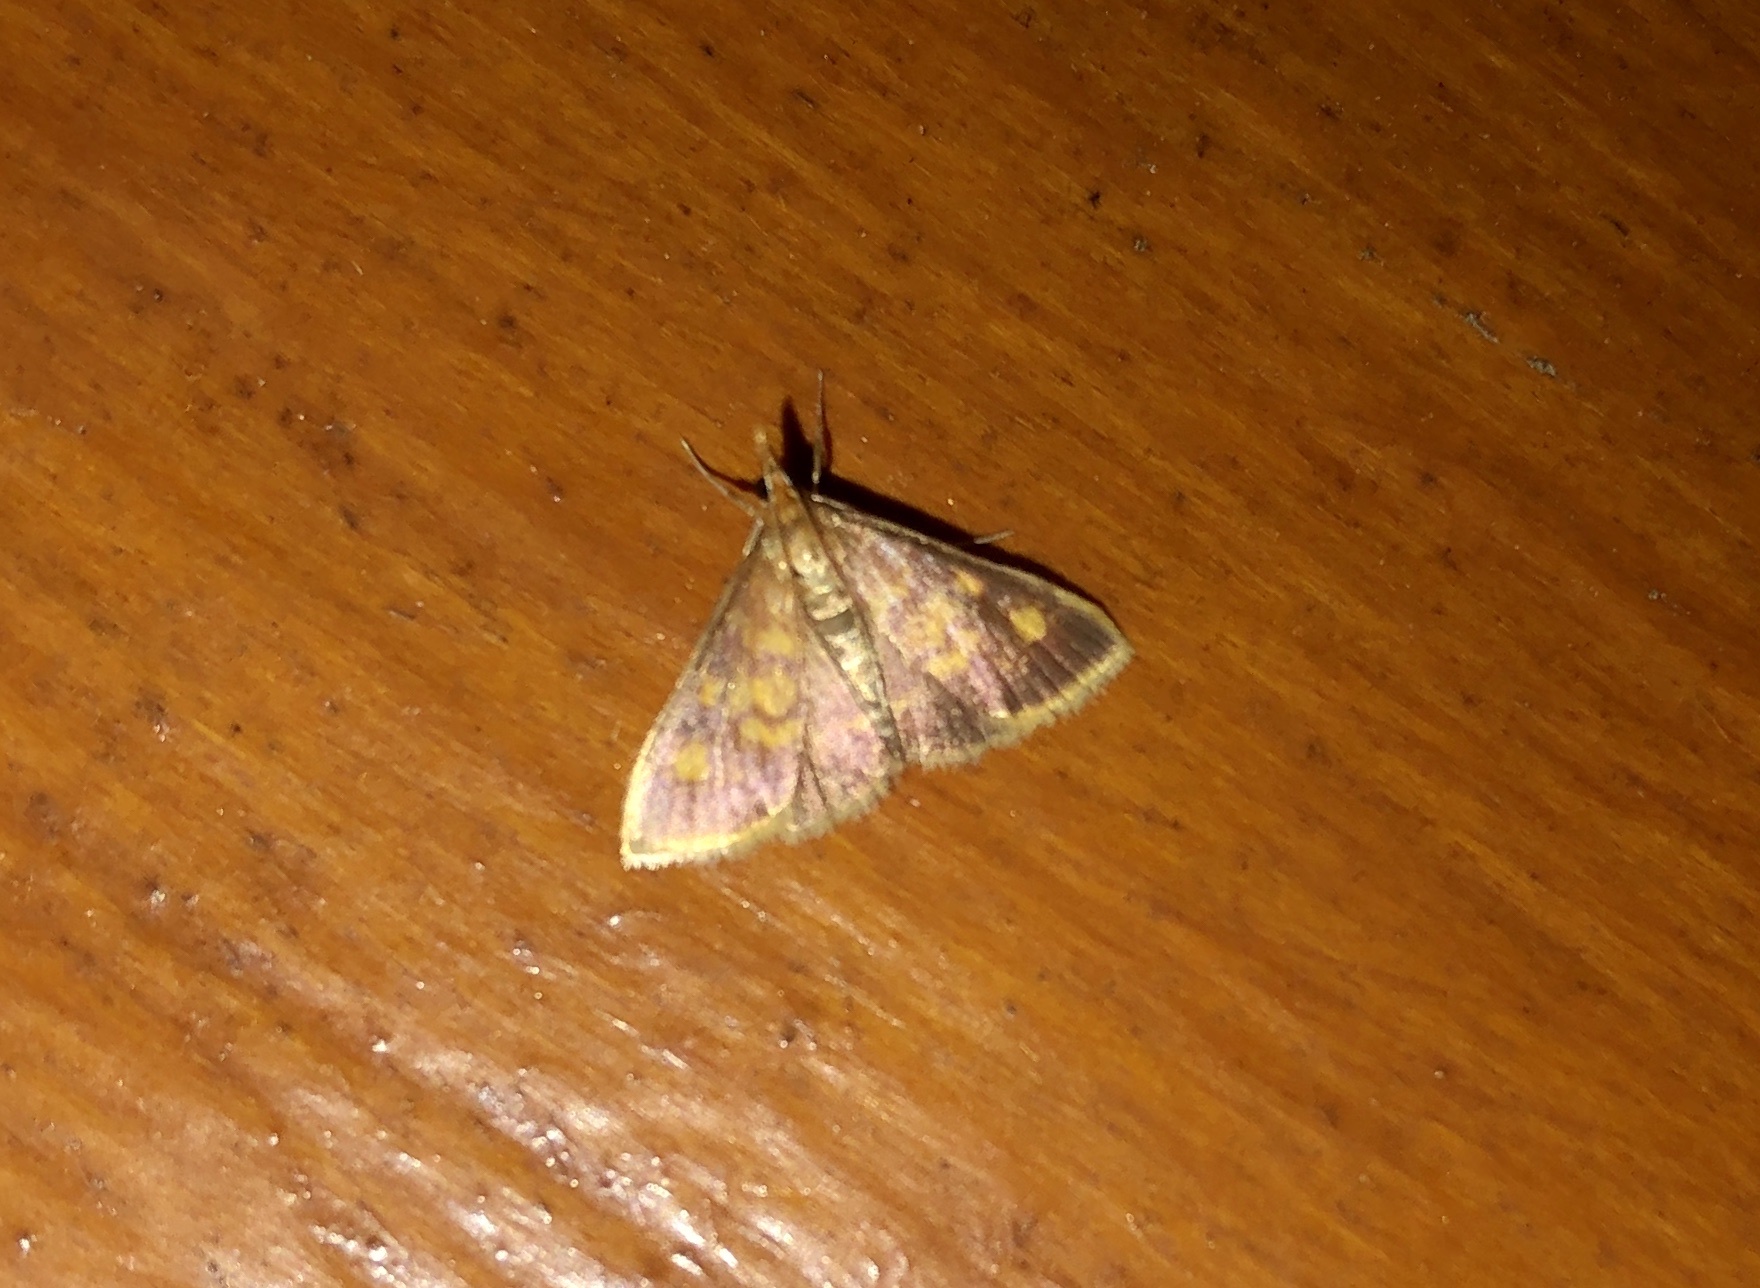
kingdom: Animalia
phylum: Arthropoda
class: Insecta
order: Lepidoptera
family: Crambidae
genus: Pyrausta
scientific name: Pyrausta acrionalis
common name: Mint-loving pyrausta moth
